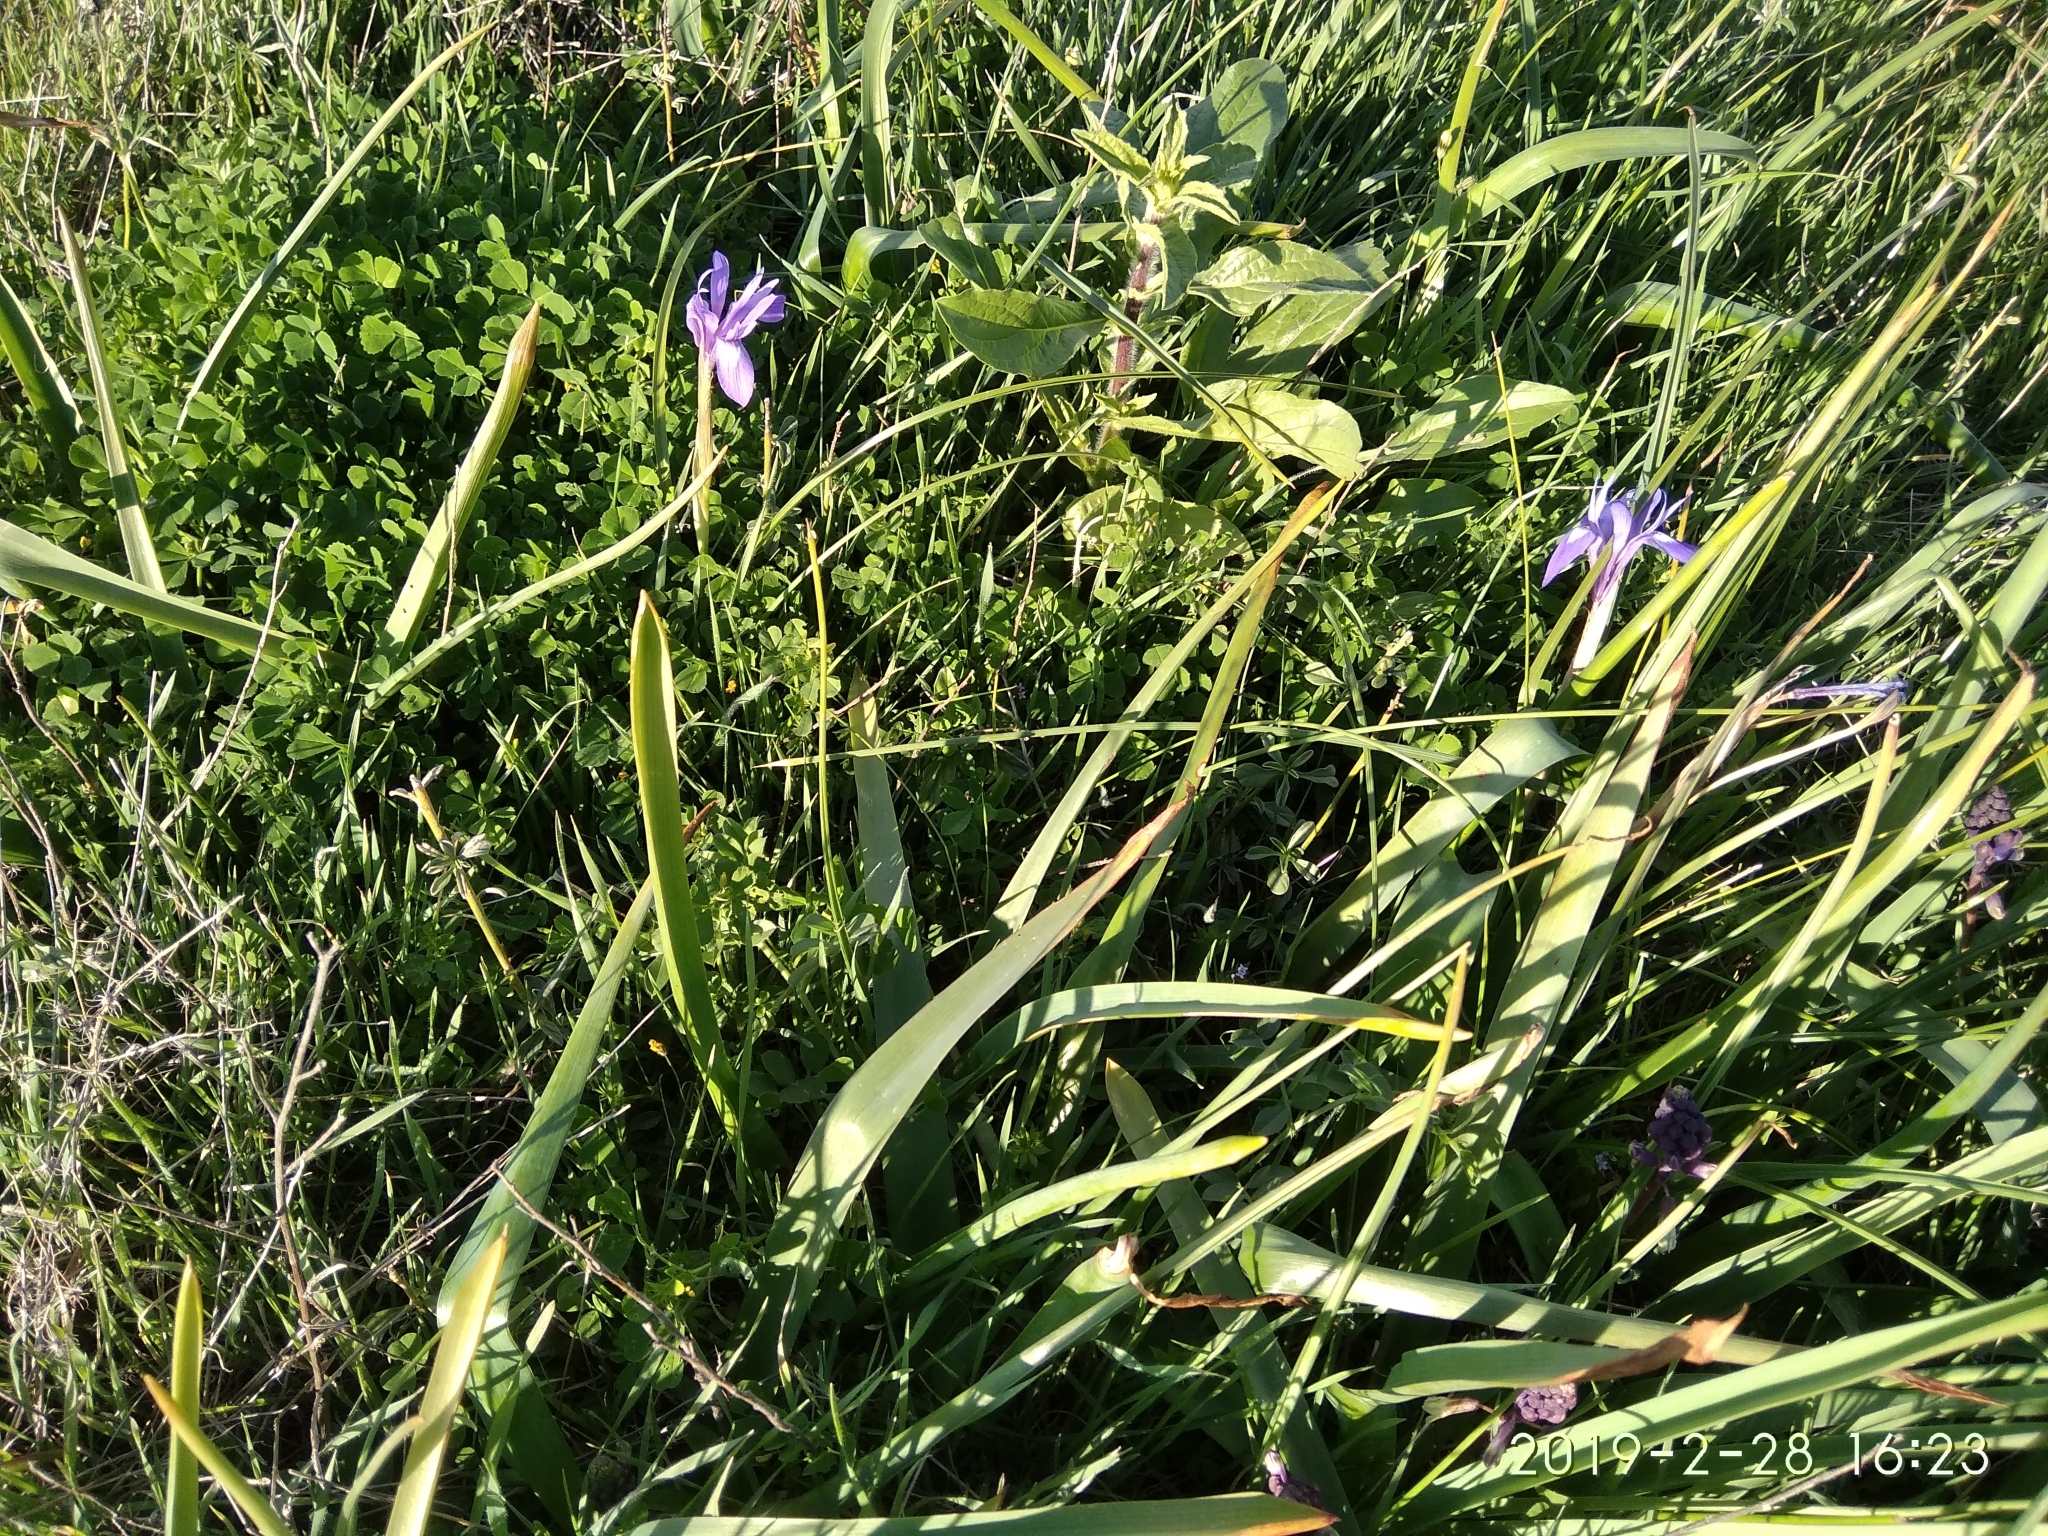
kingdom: Plantae
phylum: Tracheophyta
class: Liliopsida
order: Asparagales
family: Iridaceae
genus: Moraea
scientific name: Moraea sisyrinchium
